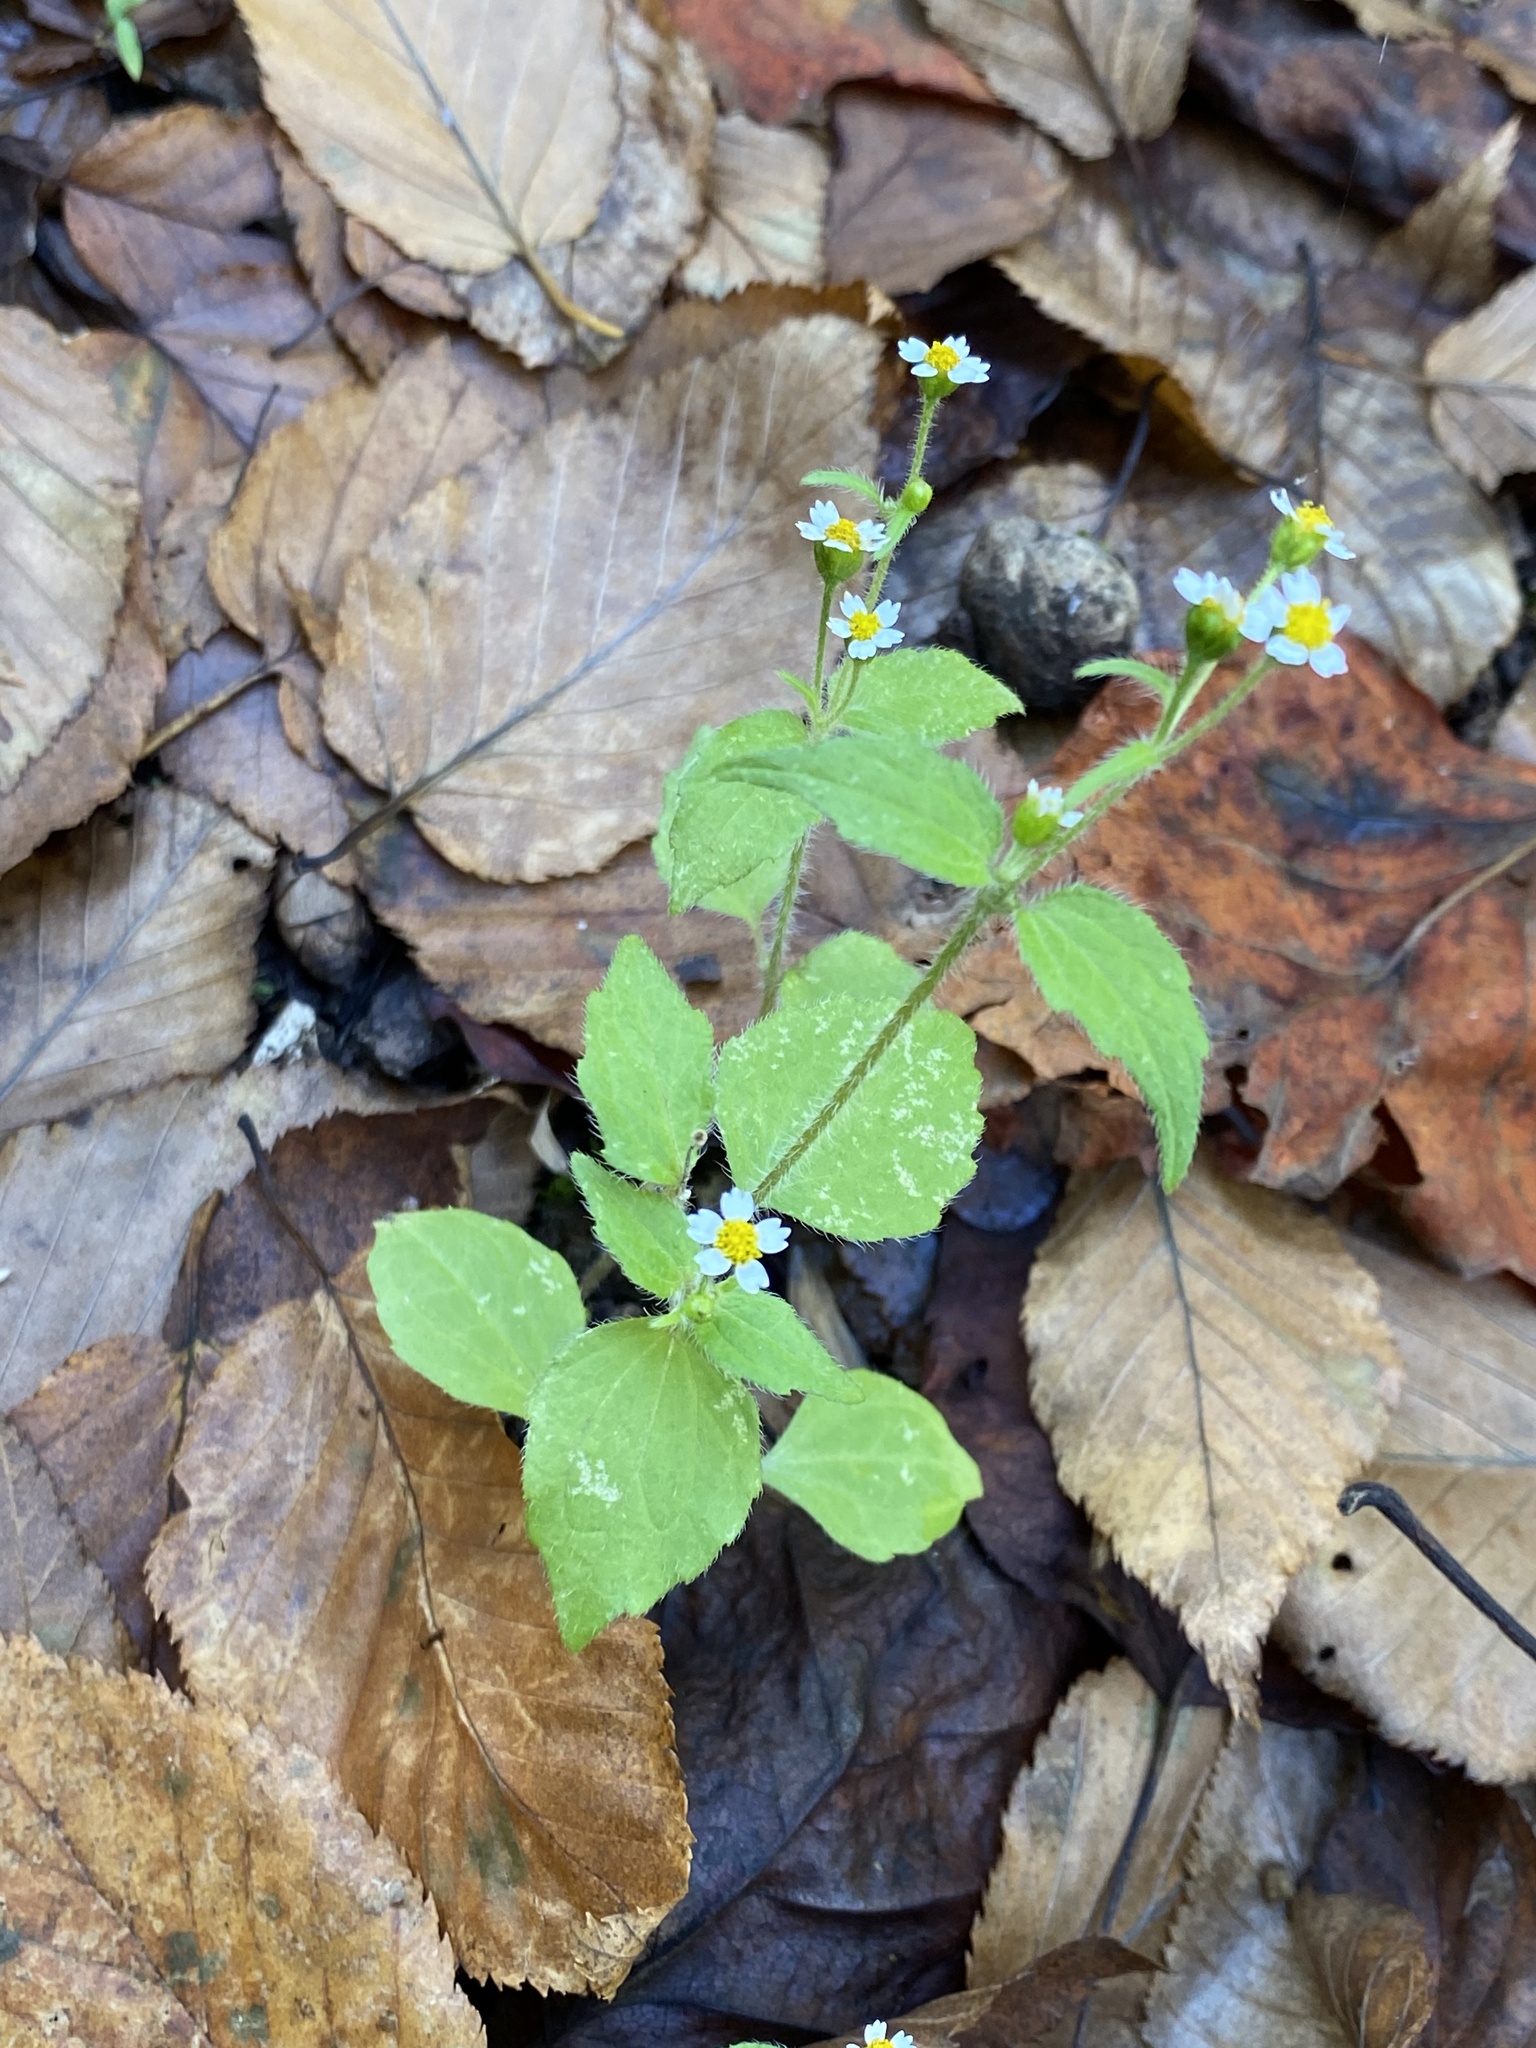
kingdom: Plantae
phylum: Tracheophyta
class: Magnoliopsida
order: Asterales
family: Asteraceae
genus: Galinsoga
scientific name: Galinsoga quadriradiata
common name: Shaggy soldier
